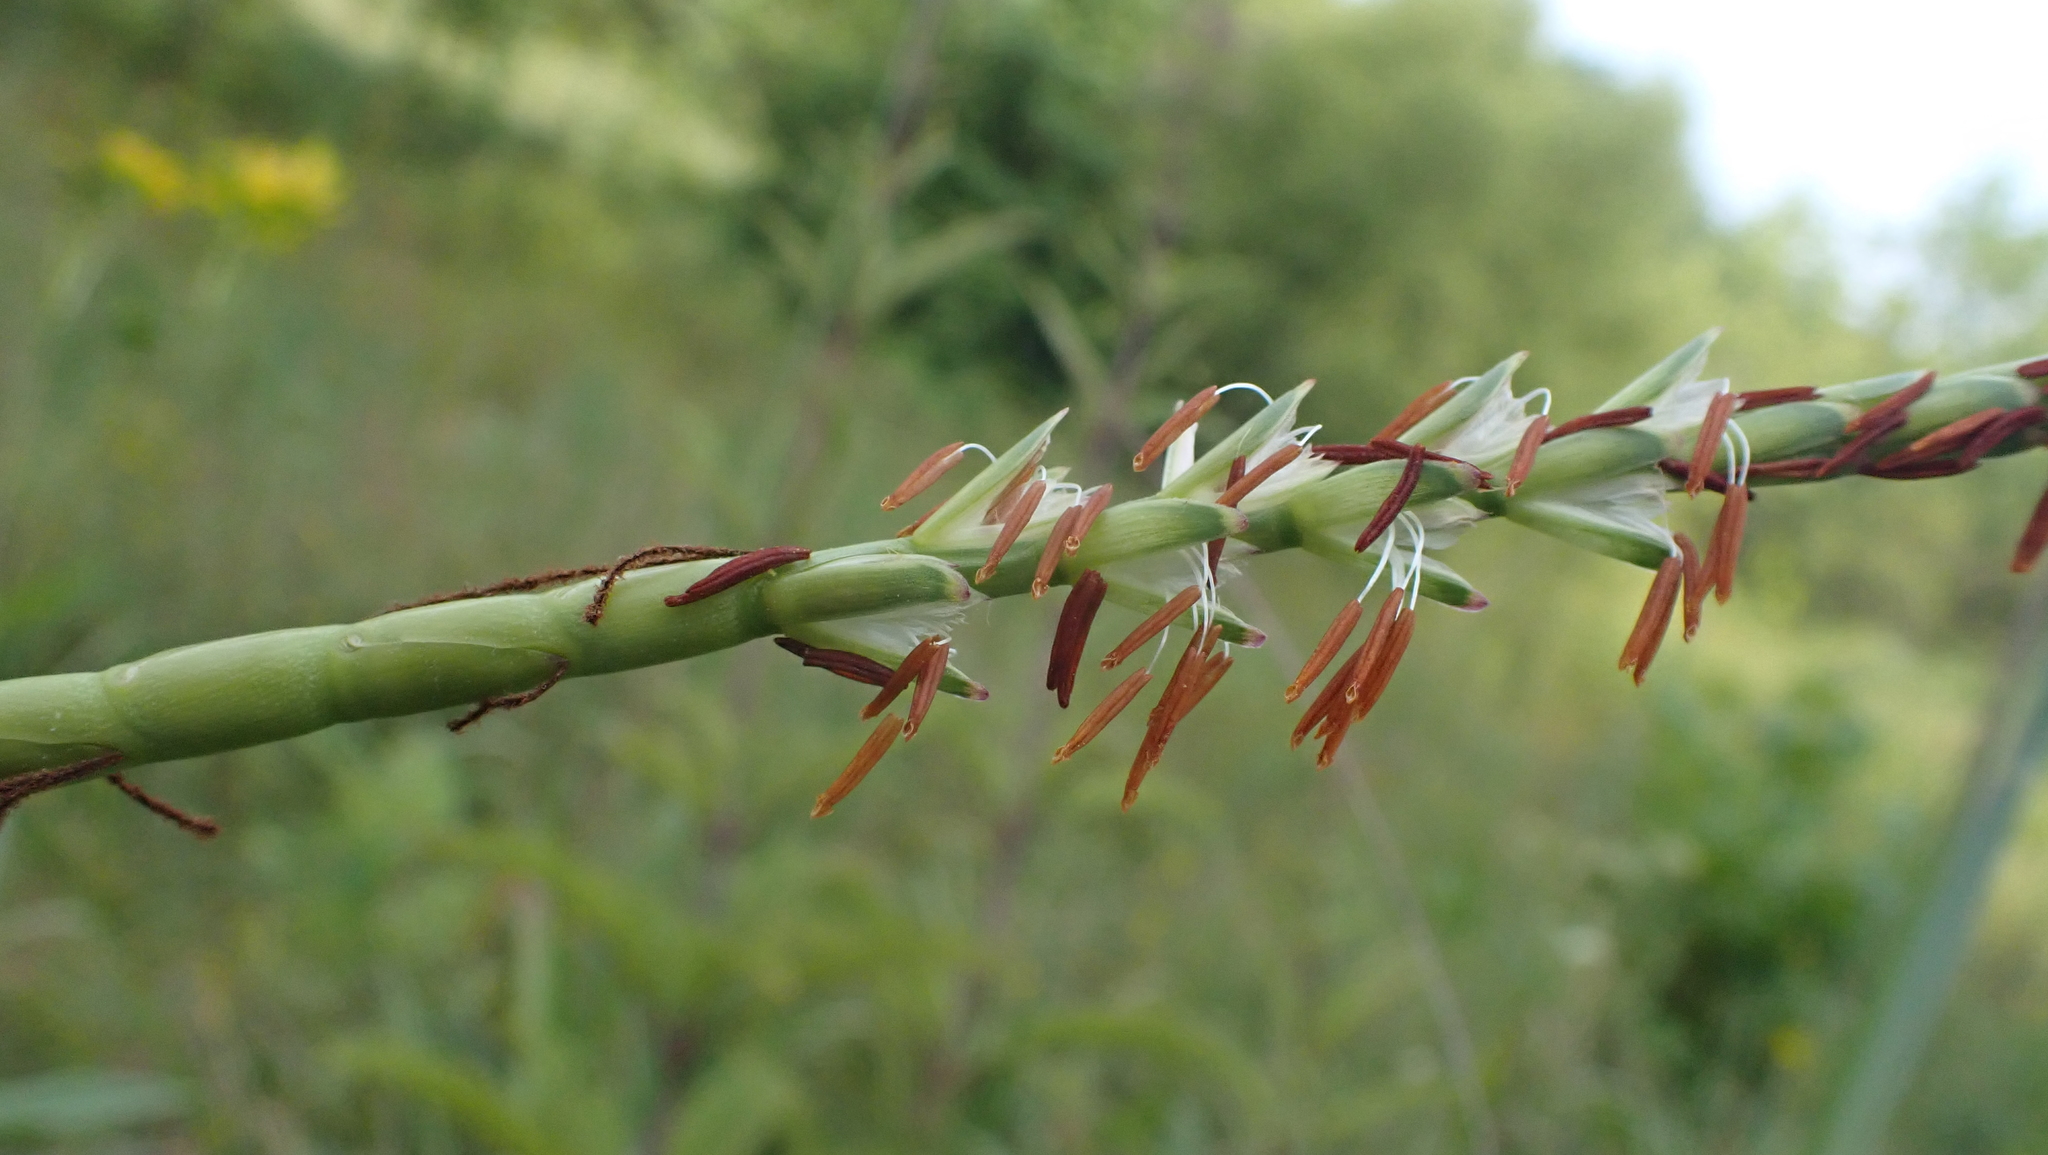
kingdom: Plantae
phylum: Tracheophyta
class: Liliopsida
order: Poales
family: Poaceae
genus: Tripsacum
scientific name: Tripsacum dactyloides
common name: Buffalo-grass
